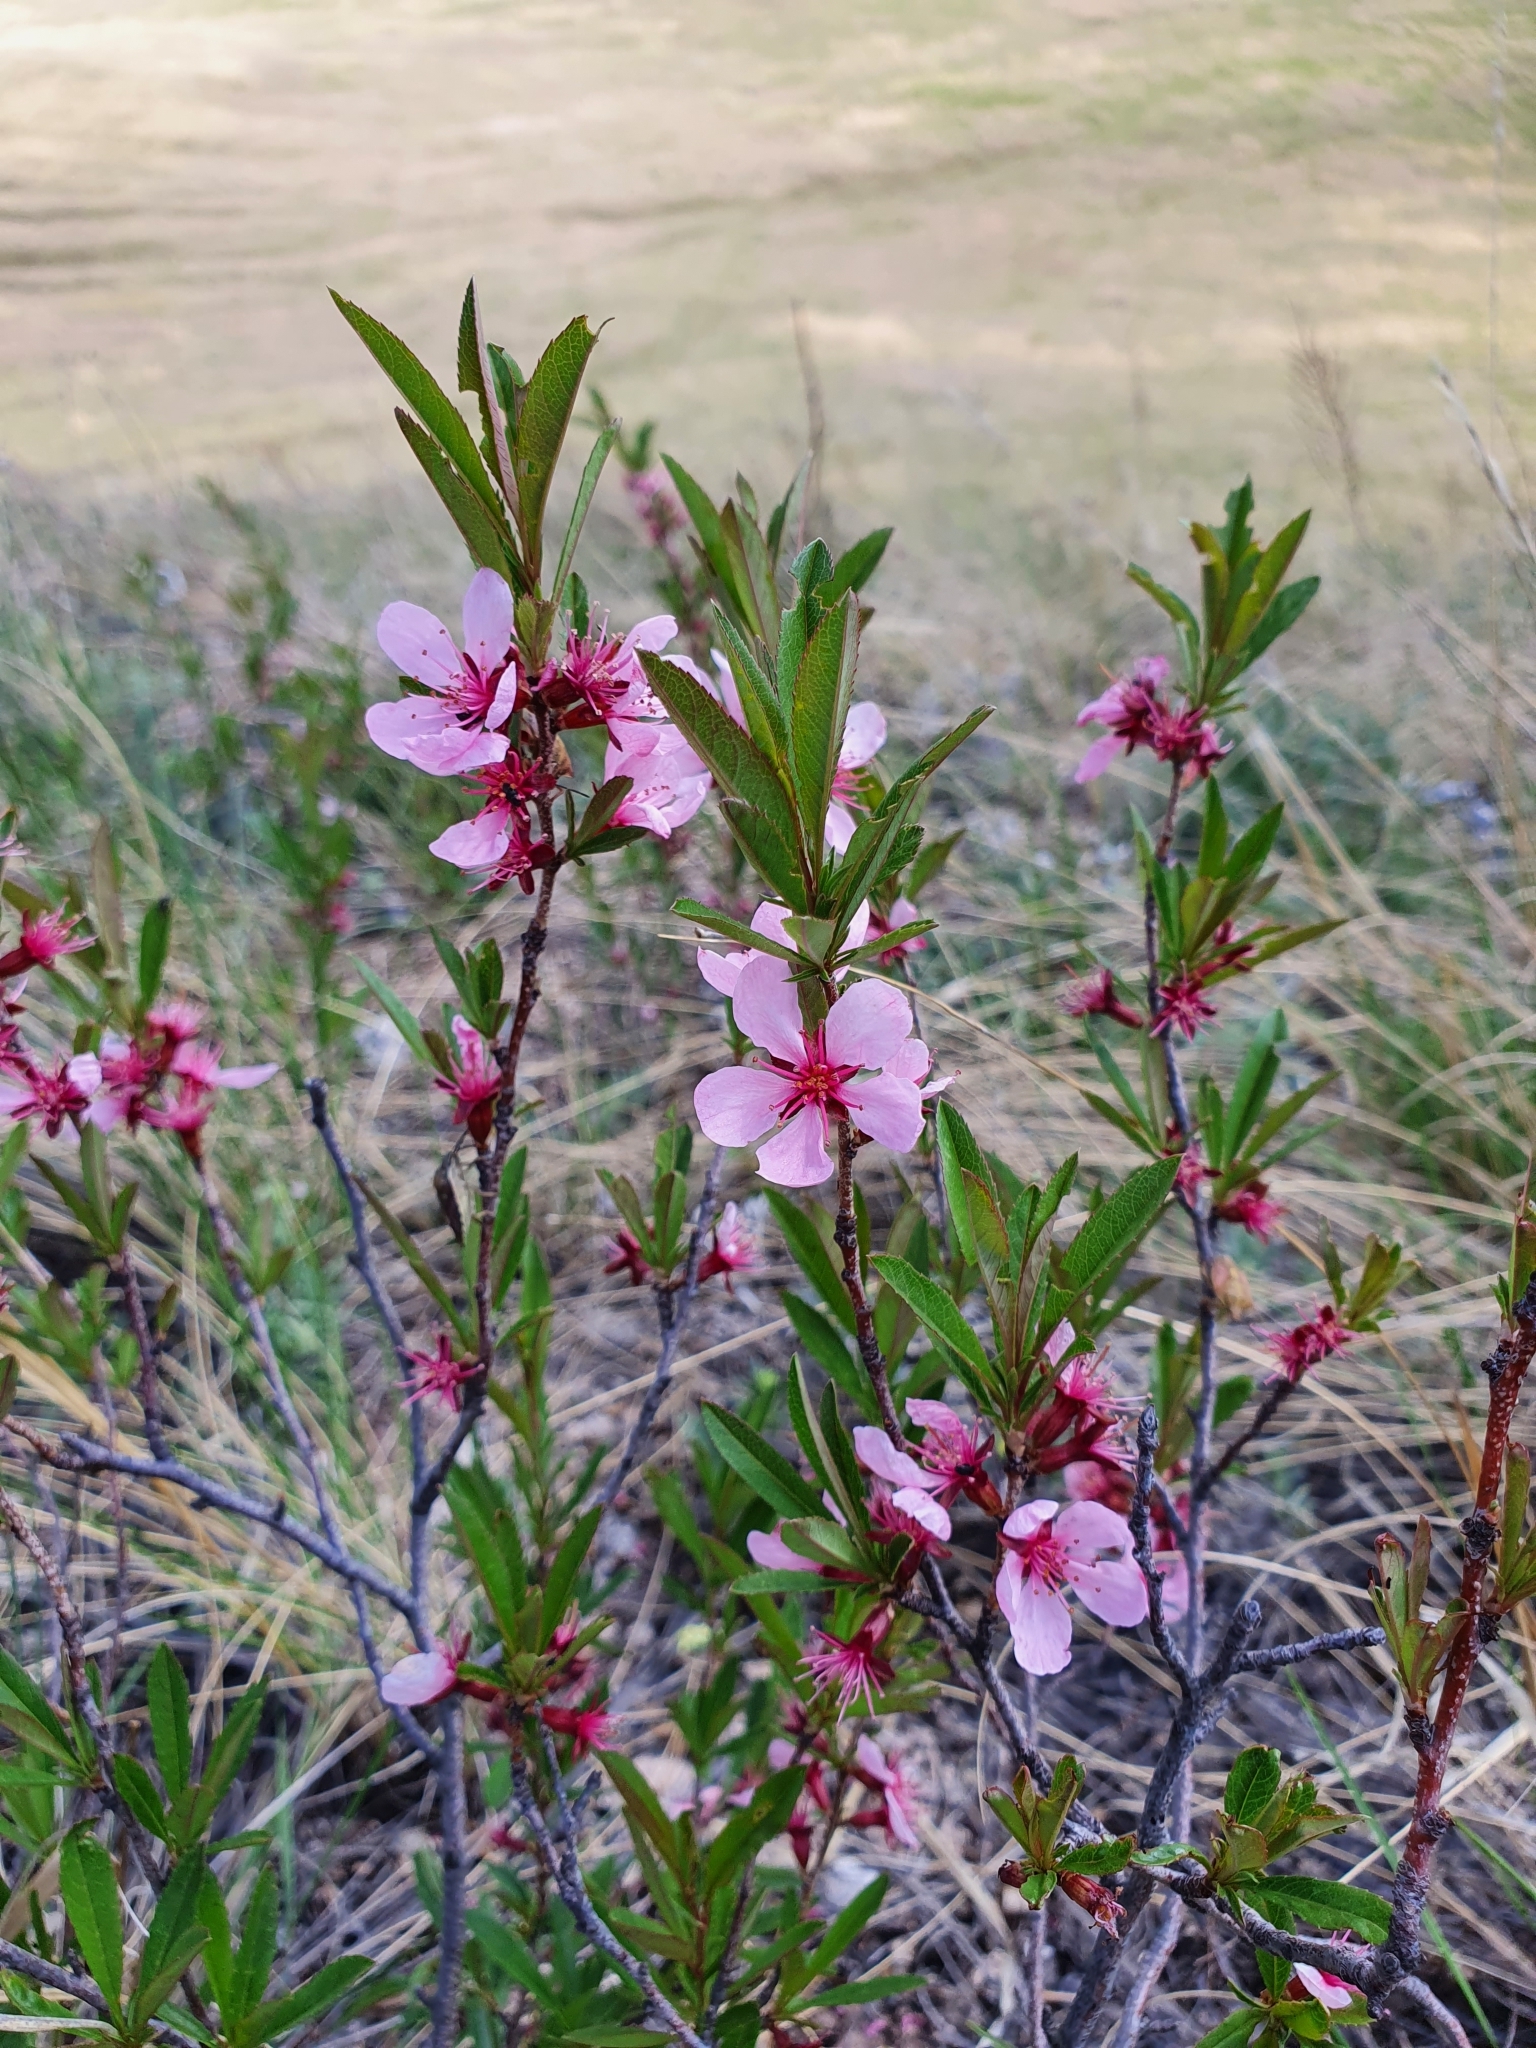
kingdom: Plantae
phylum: Tracheophyta
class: Magnoliopsida
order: Rosales
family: Rosaceae
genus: Prunus
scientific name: Prunus tenella
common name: Dwarf russian almond
